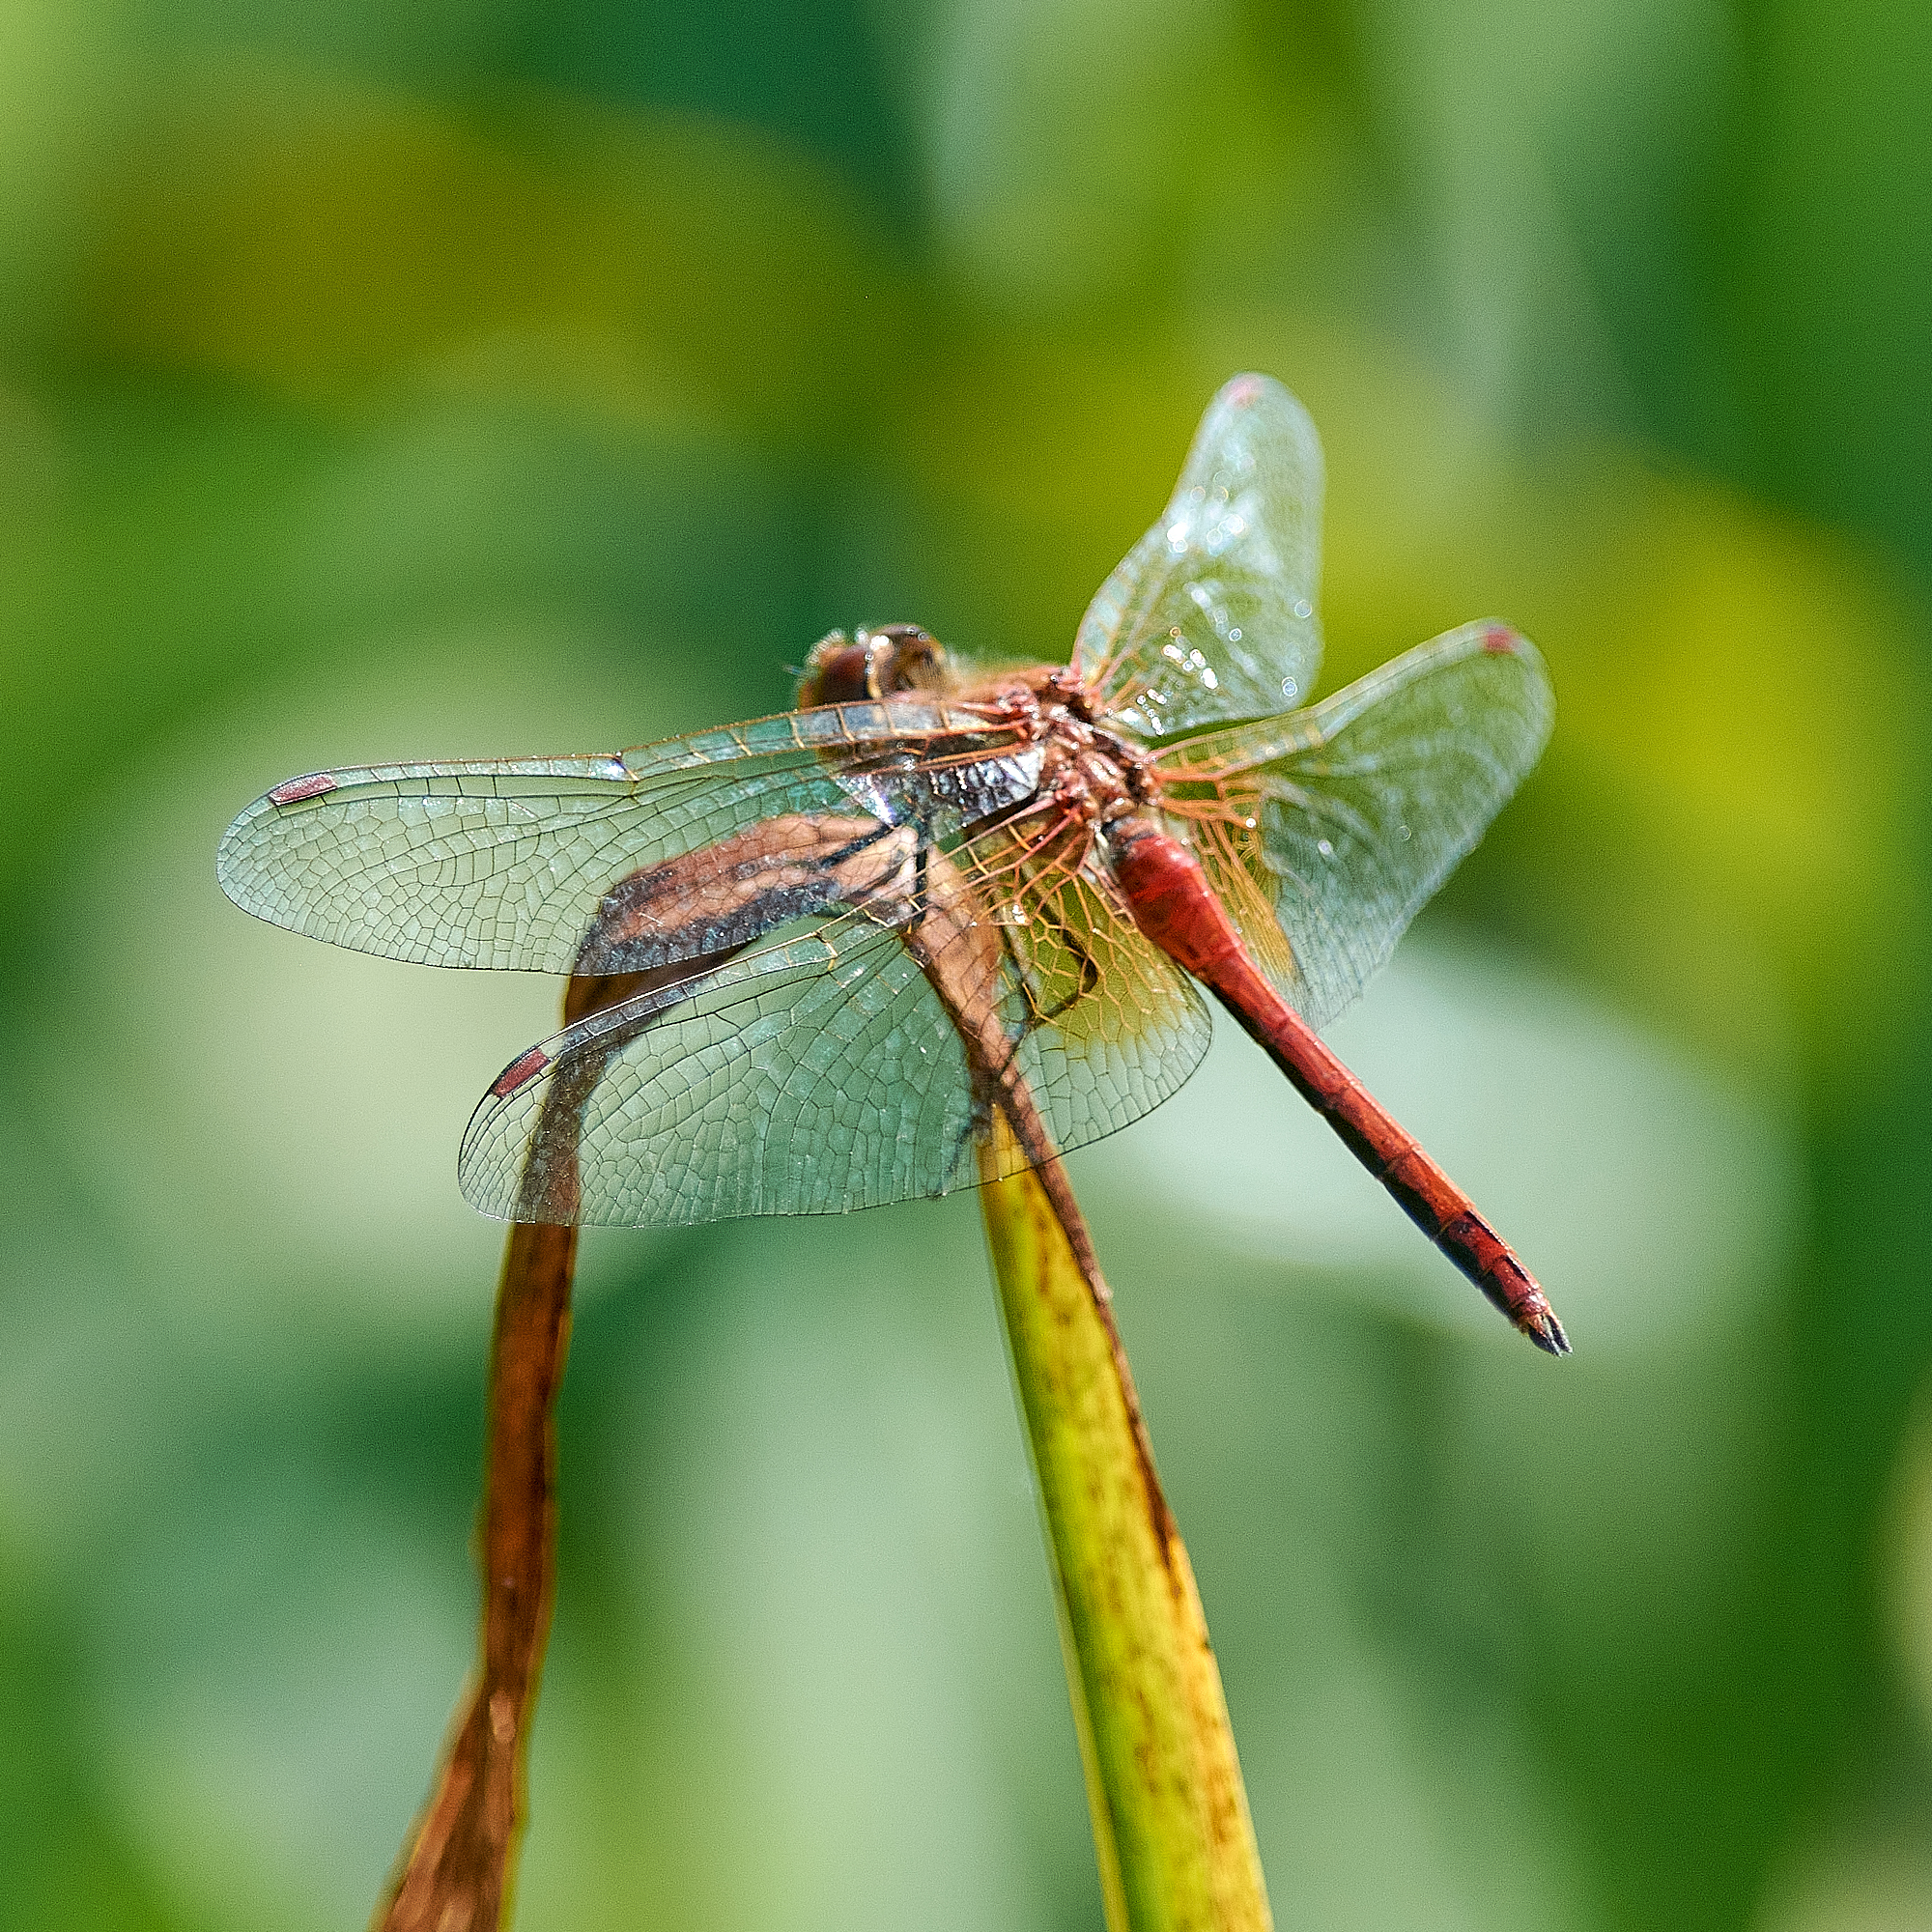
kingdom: Animalia
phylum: Arthropoda
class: Insecta
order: Odonata
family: Libellulidae
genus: Sympetrum
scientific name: Sympetrum flaveolum
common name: Yellow-winged darter
